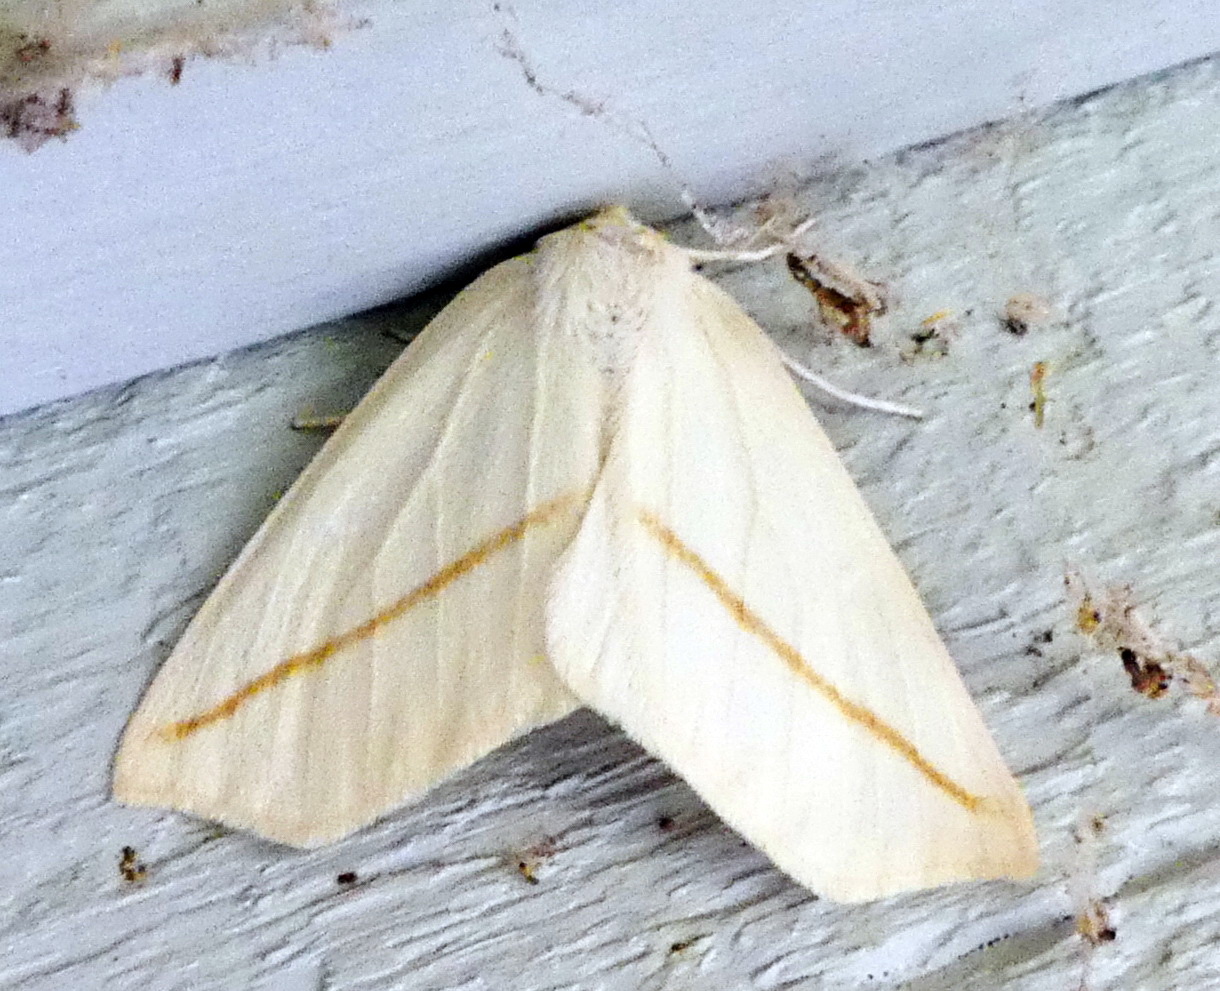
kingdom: Animalia
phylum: Arthropoda
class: Insecta
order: Lepidoptera
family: Geometridae
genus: Tetracis
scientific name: Tetracis cachexiata
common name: White slant-line
